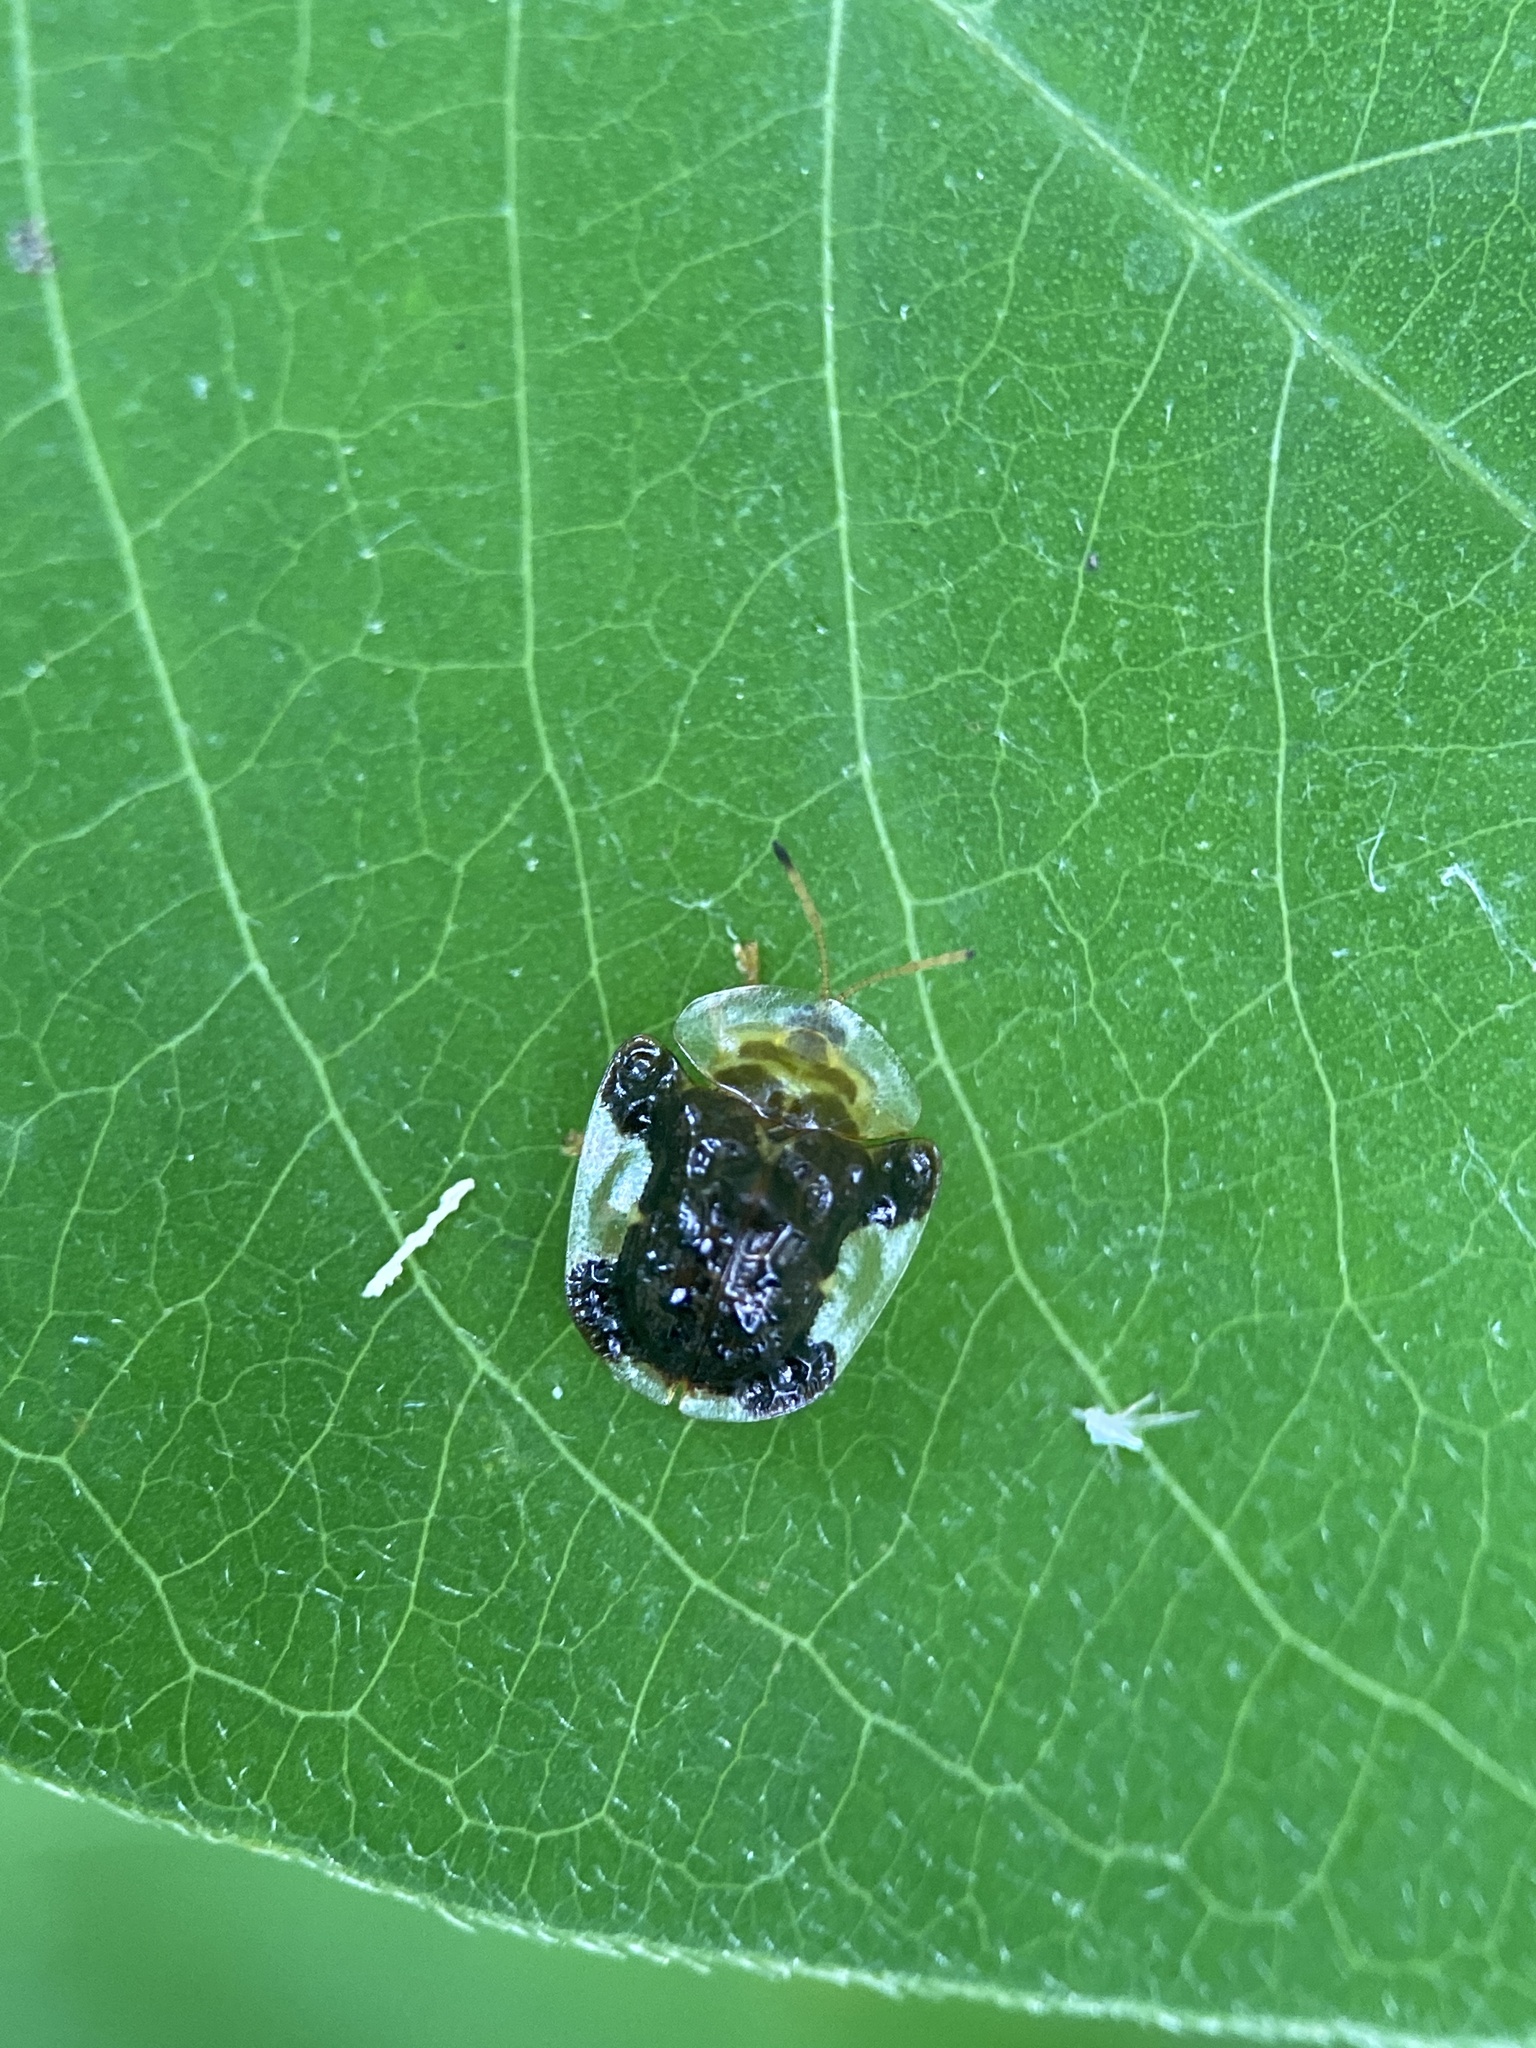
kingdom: Animalia
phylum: Arthropoda
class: Insecta
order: Coleoptera
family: Chrysomelidae
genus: Helocassis
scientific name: Helocassis clavata
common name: Clavate tortoise beetle
